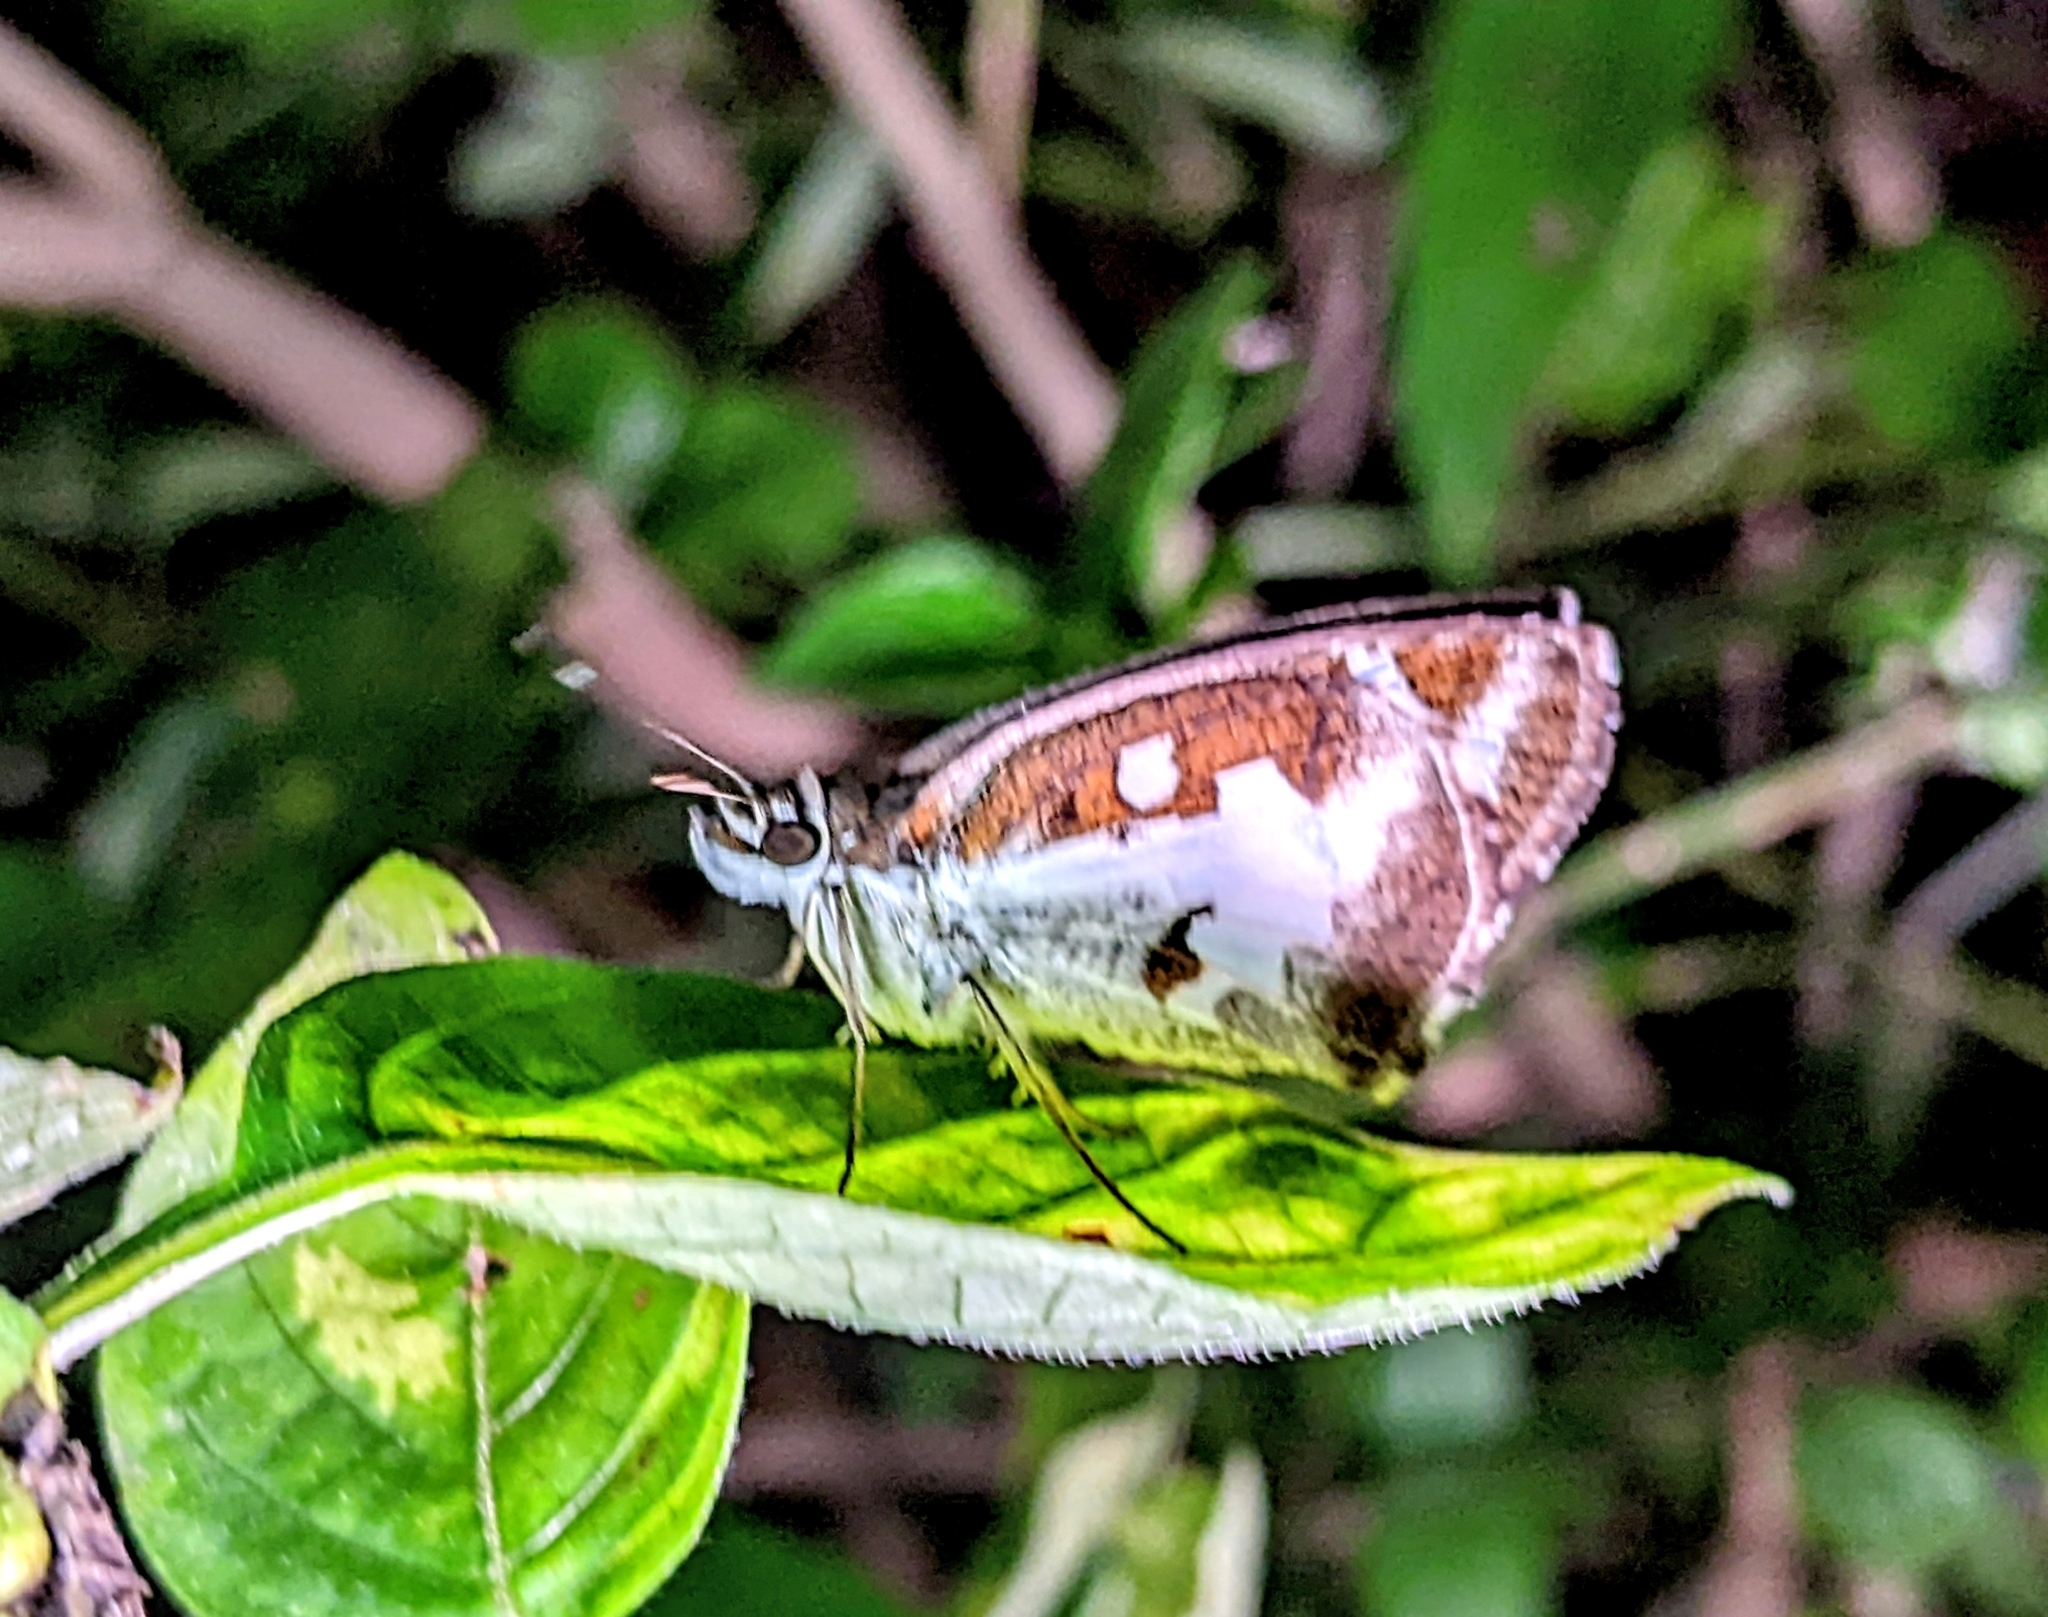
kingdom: Animalia
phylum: Arthropoda
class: Insecta
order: Lepidoptera
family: Hesperiidae
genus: Udaspes
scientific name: Udaspes folus
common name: Grass demon
